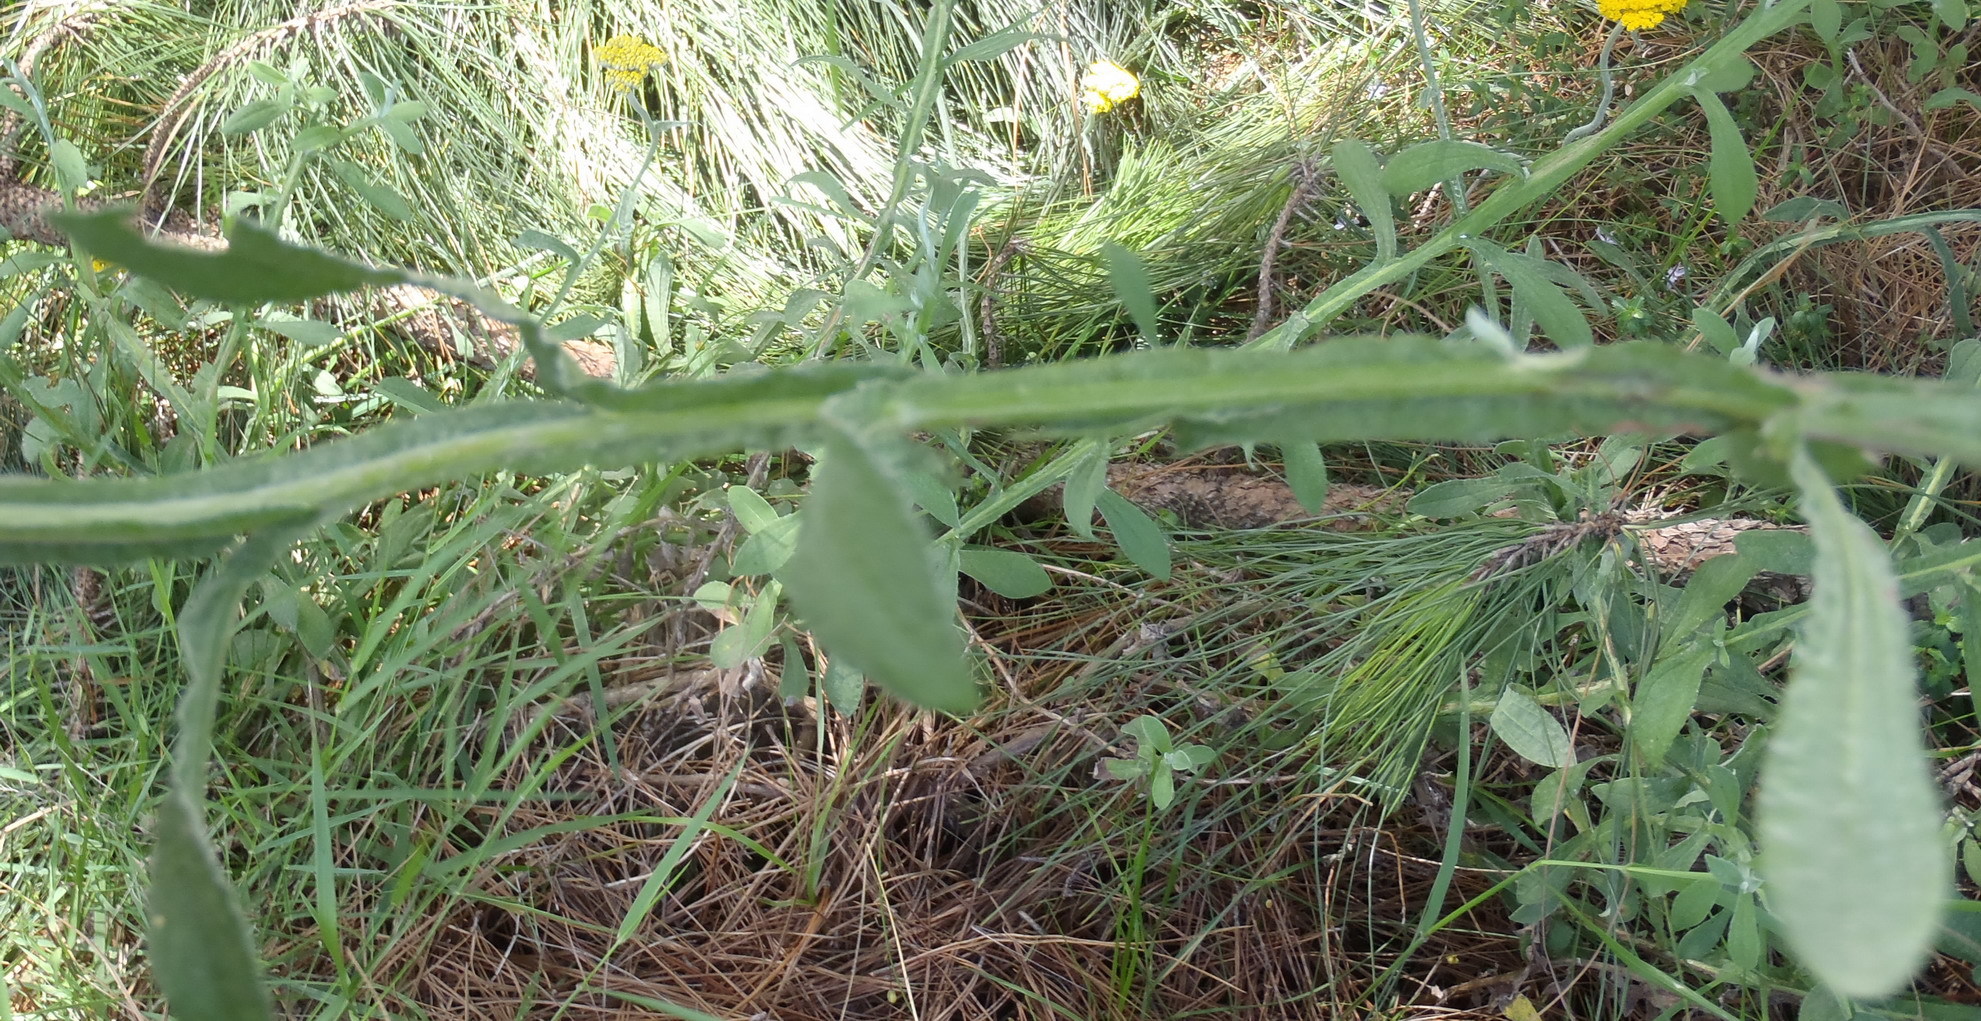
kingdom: Plantae
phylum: Tracheophyta
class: Magnoliopsida
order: Asterales
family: Asteraceae
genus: Helichrysum
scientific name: Helichrysum odoratissimum
